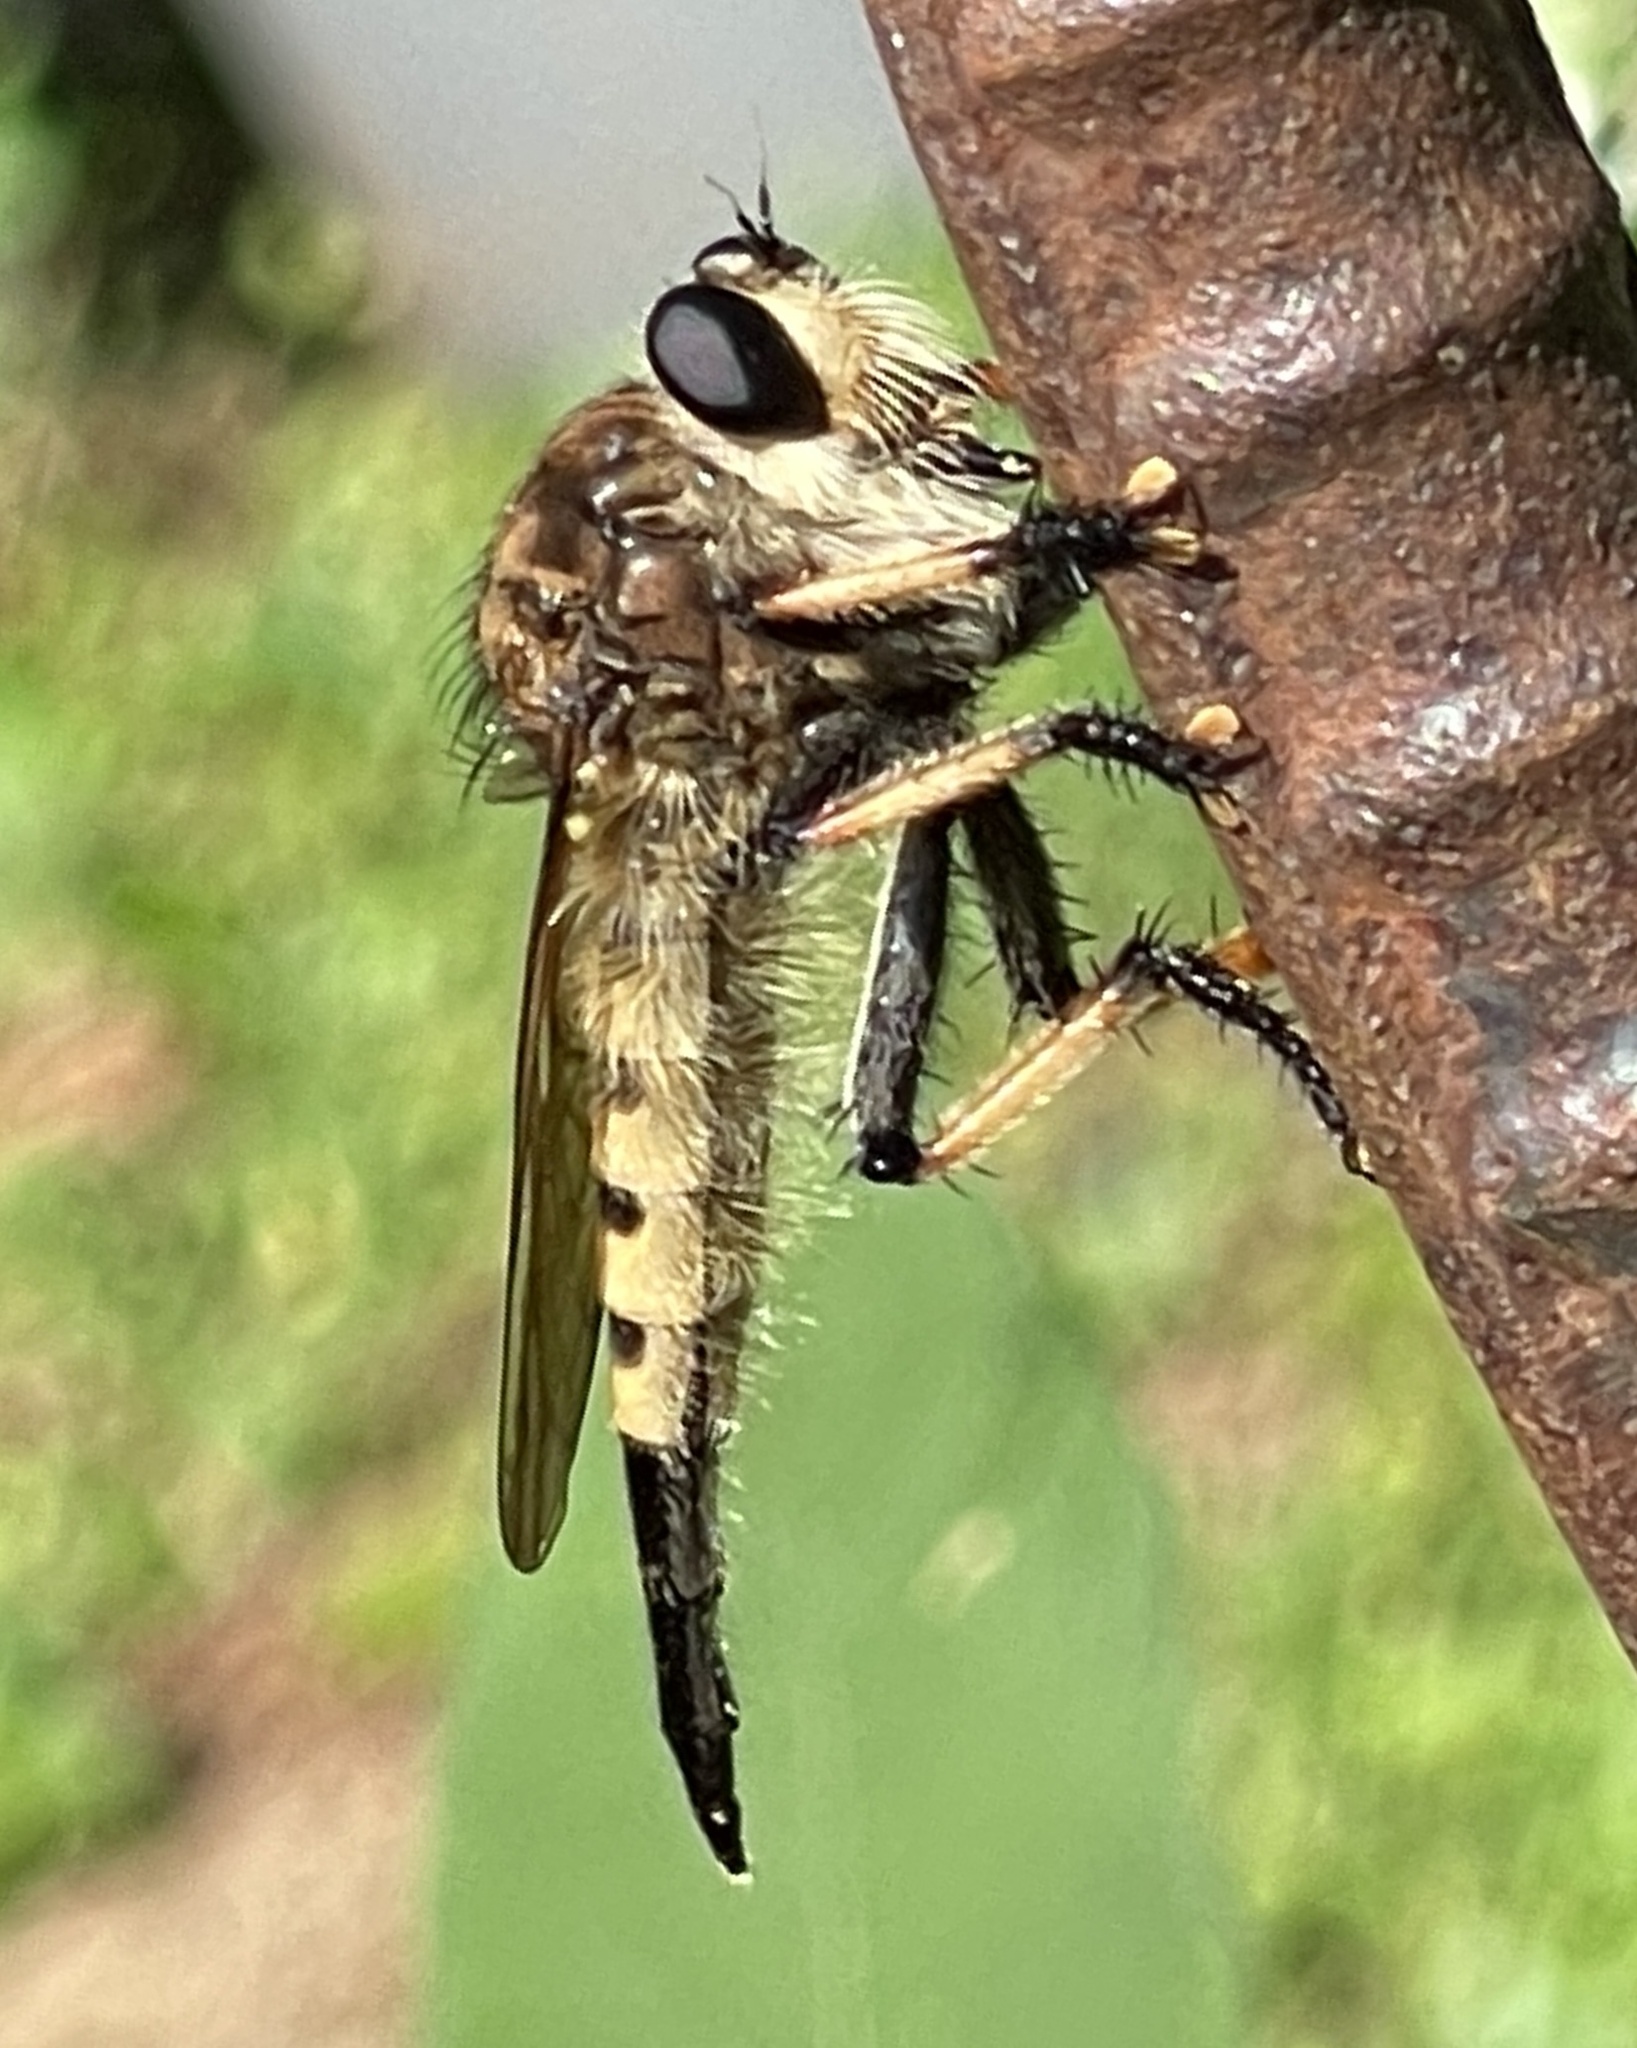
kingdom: Animalia
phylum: Arthropoda
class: Insecta
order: Diptera
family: Asilidae
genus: Promachus
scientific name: Promachus rufipes
